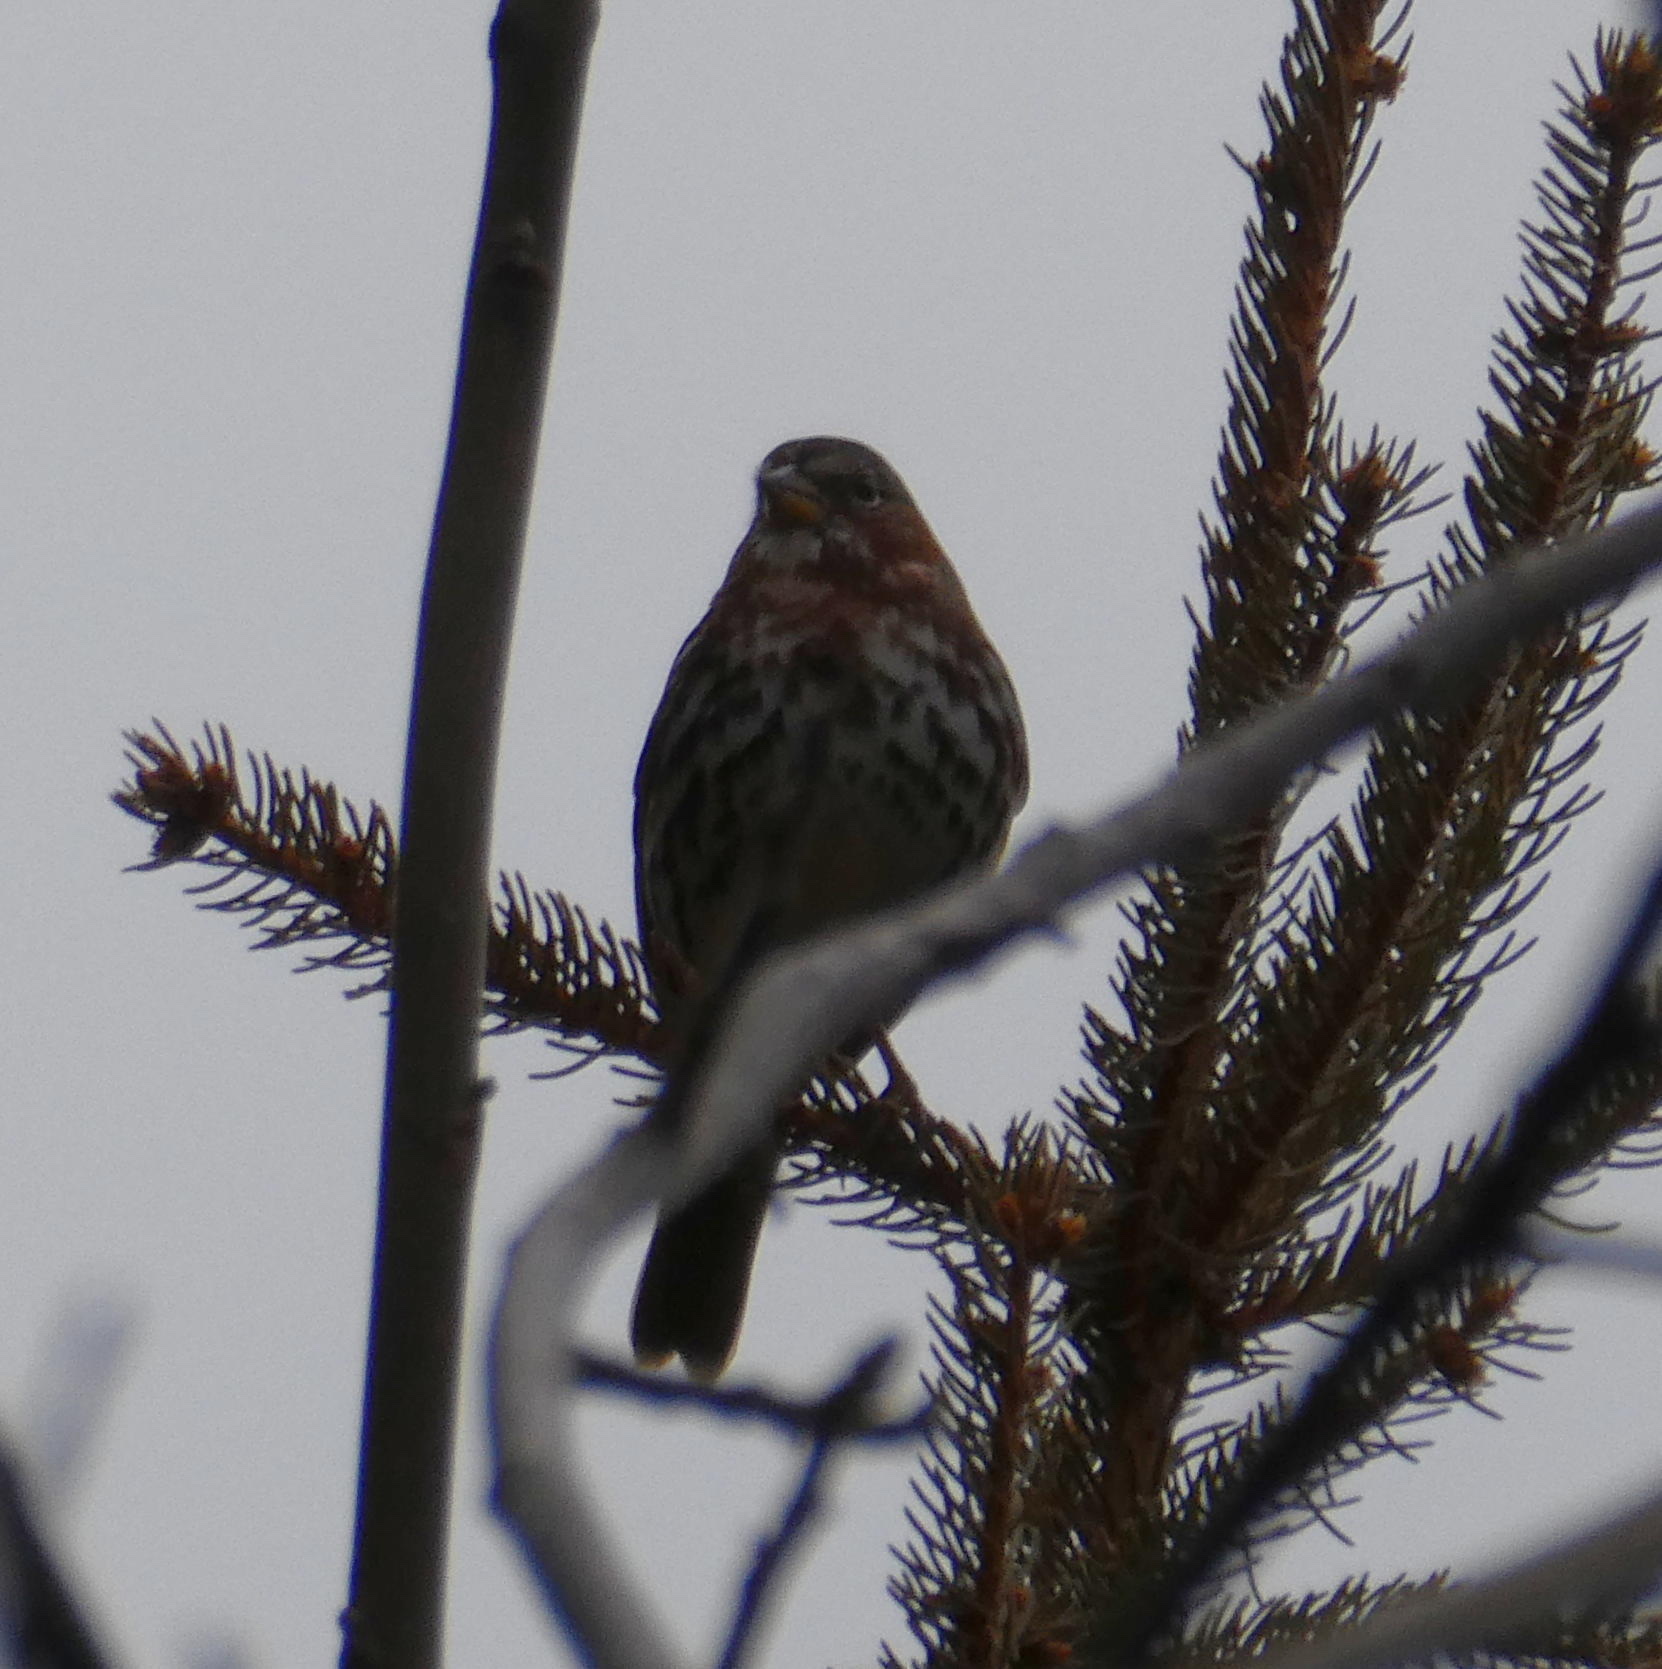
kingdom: Animalia
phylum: Chordata
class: Aves
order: Passeriformes
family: Passerellidae
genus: Passerella
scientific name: Passerella iliaca
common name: Fox sparrow
